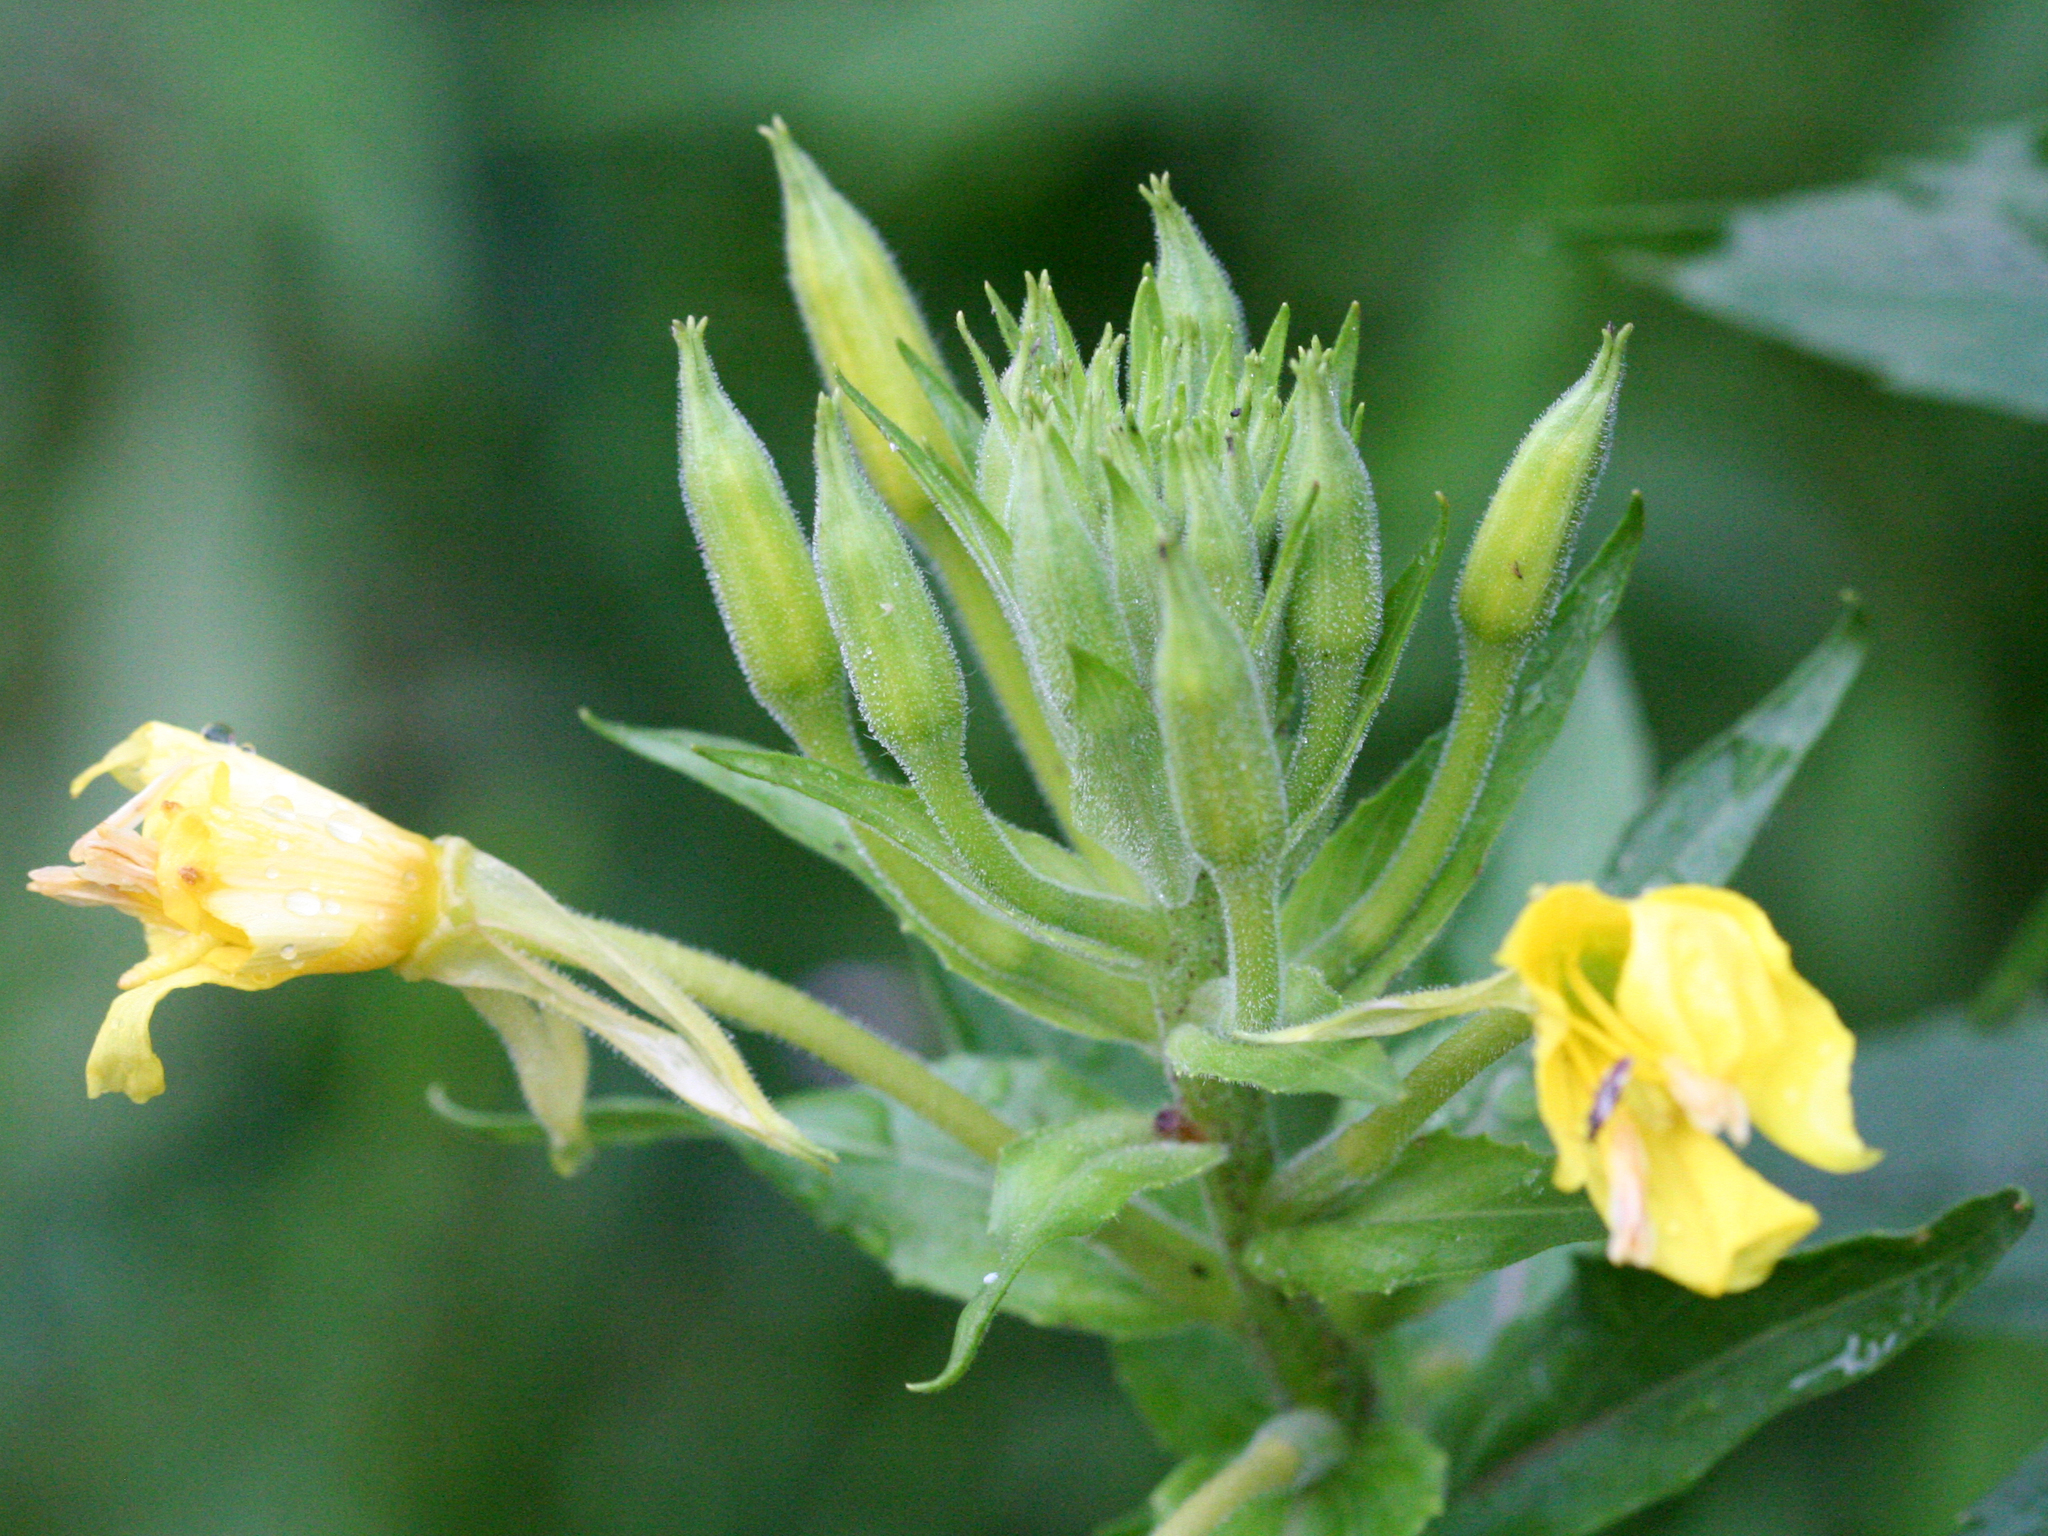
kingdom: Plantae
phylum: Tracheophyta
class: Magnoliopsida
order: Myrtales
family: Onagraceae
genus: Oenothera
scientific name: Oenothera biennis
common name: Common evening-primrose
